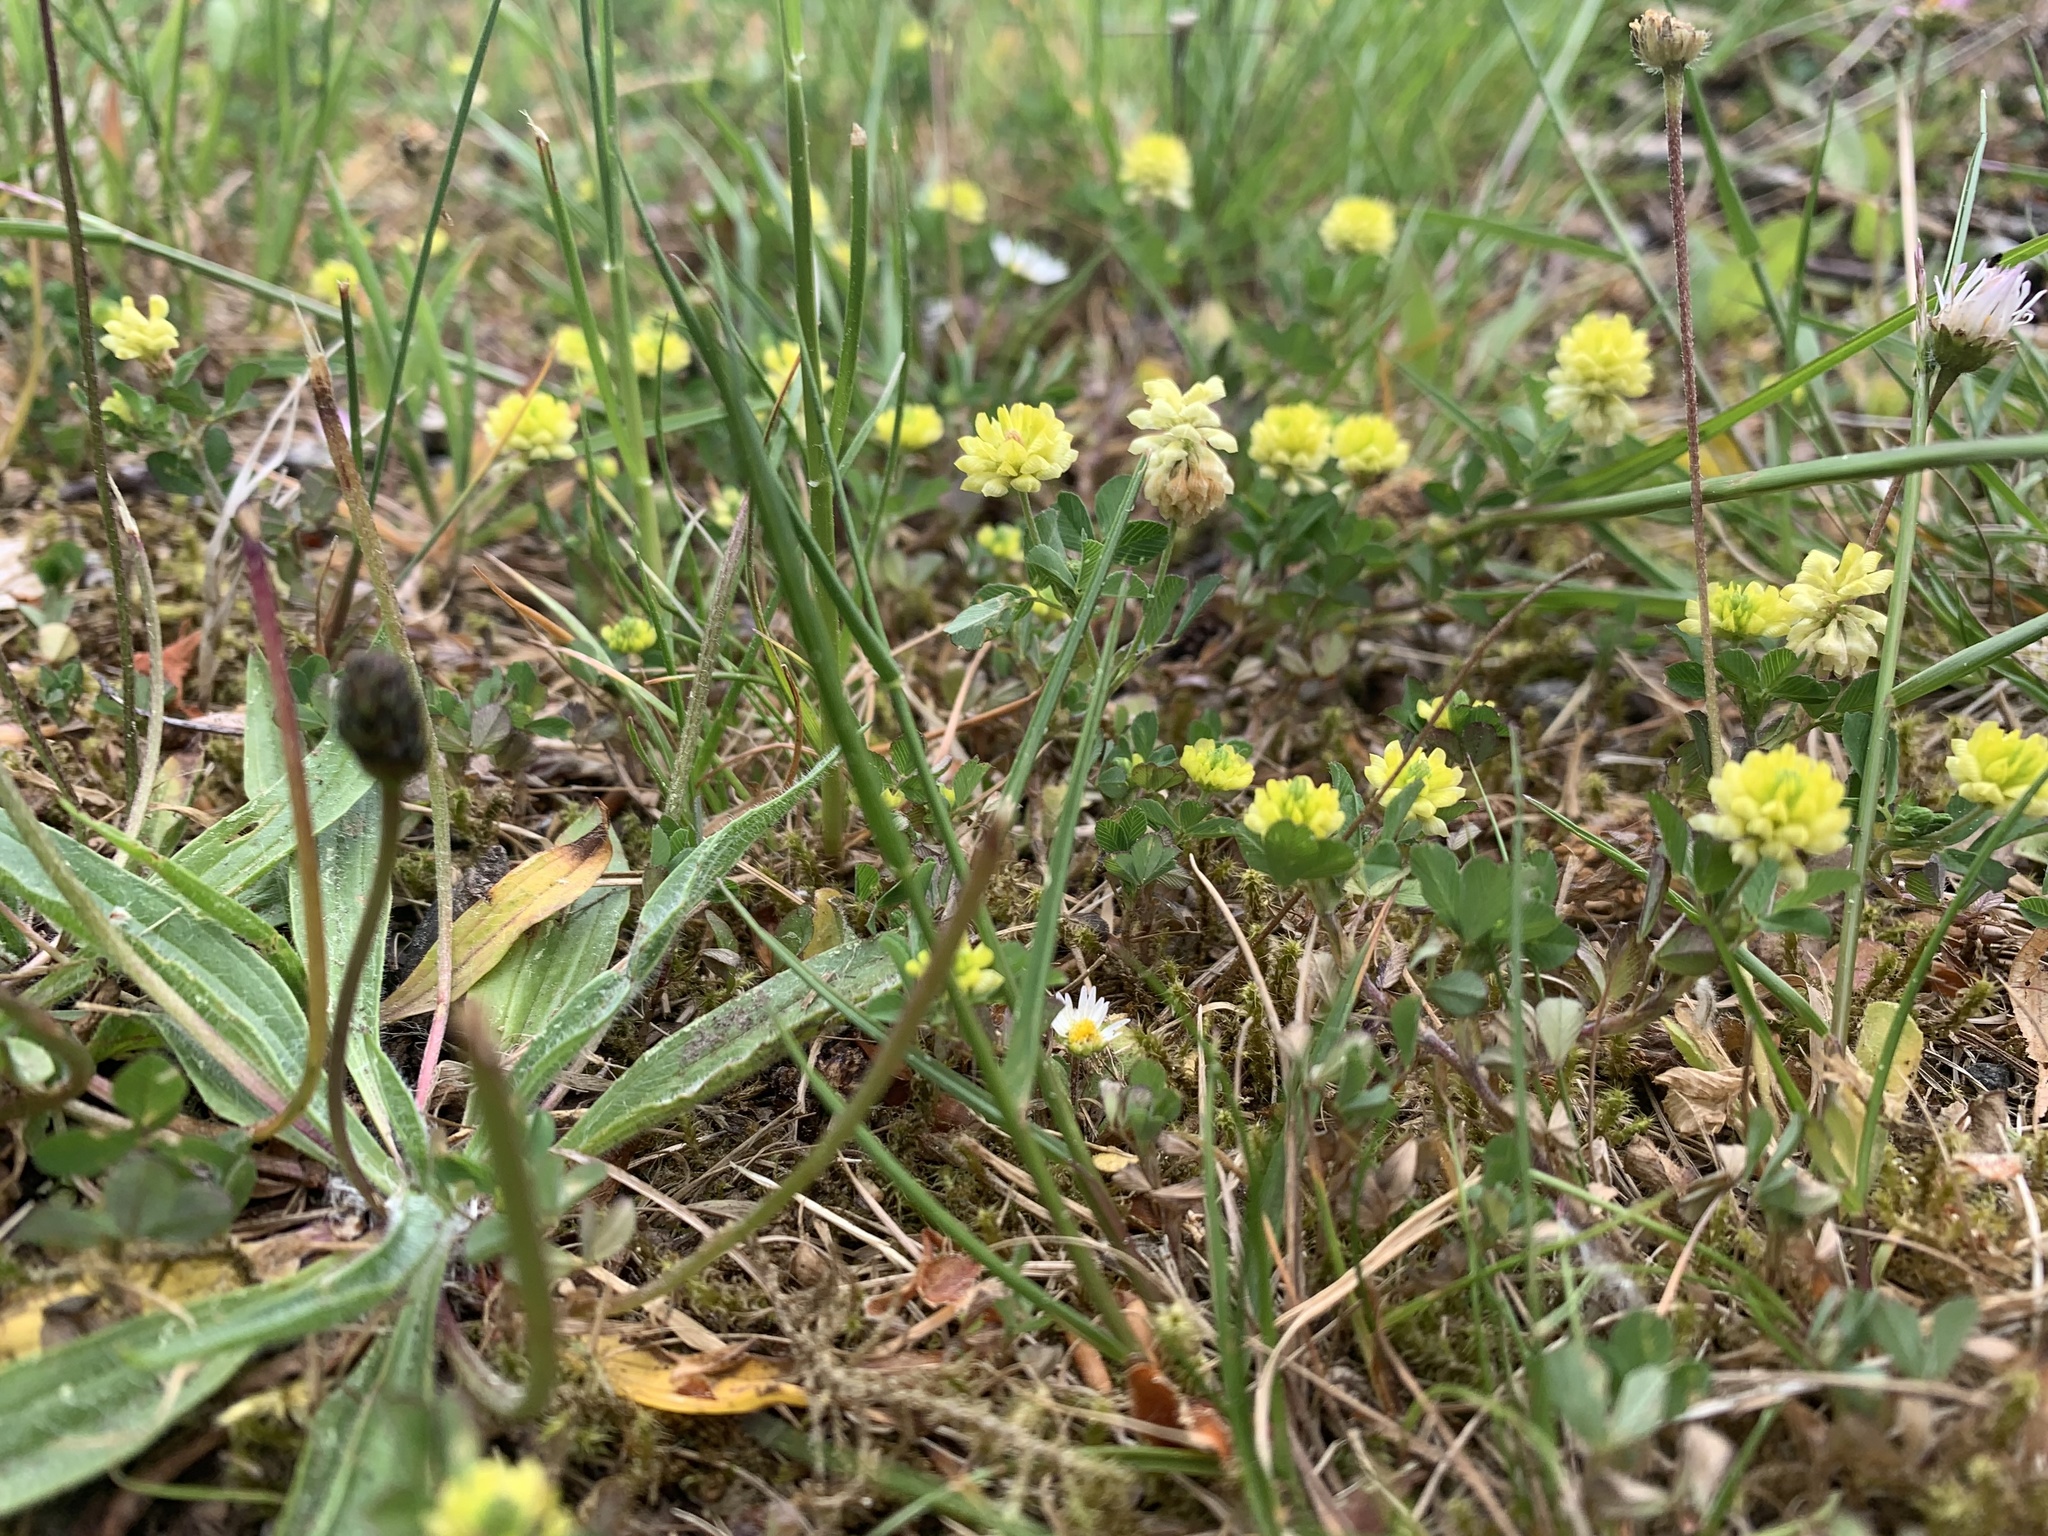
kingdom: Plantae
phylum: Tracheophyta
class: Magnoliopsida
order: Fabales
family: Fabaceae
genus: Trifolium
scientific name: Trifolium campestre
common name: Field clover
